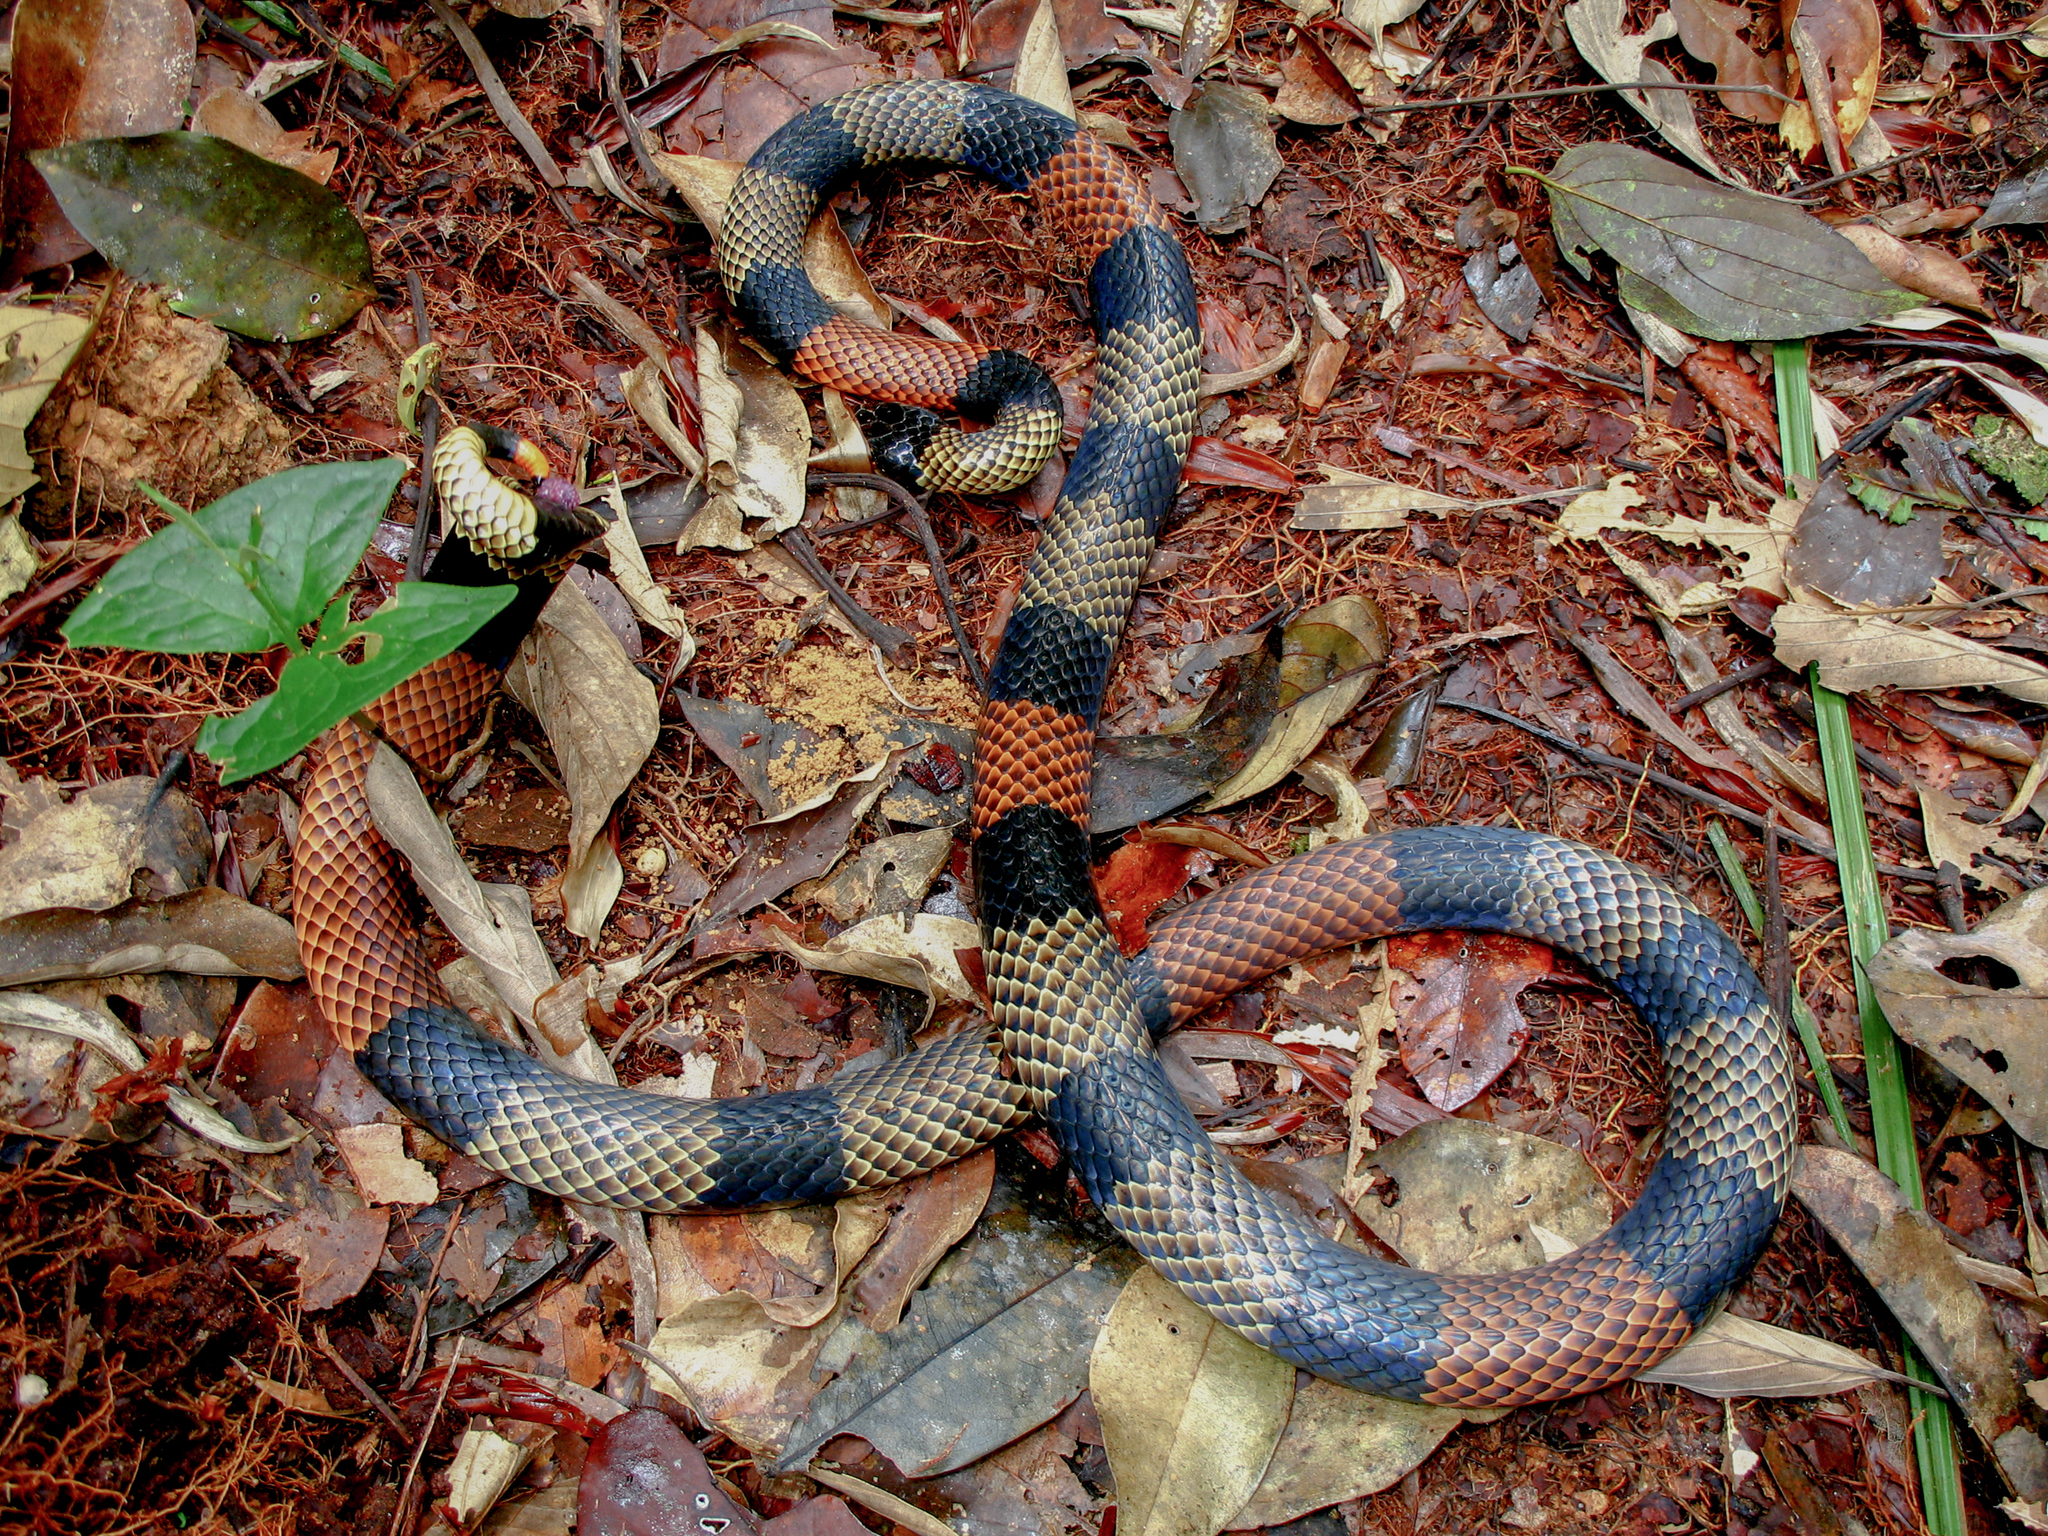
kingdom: Animalia
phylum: Chordata
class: Squamata
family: Elapidae
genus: Micrurus
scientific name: Micrurus spixii
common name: Amazon coral snake
